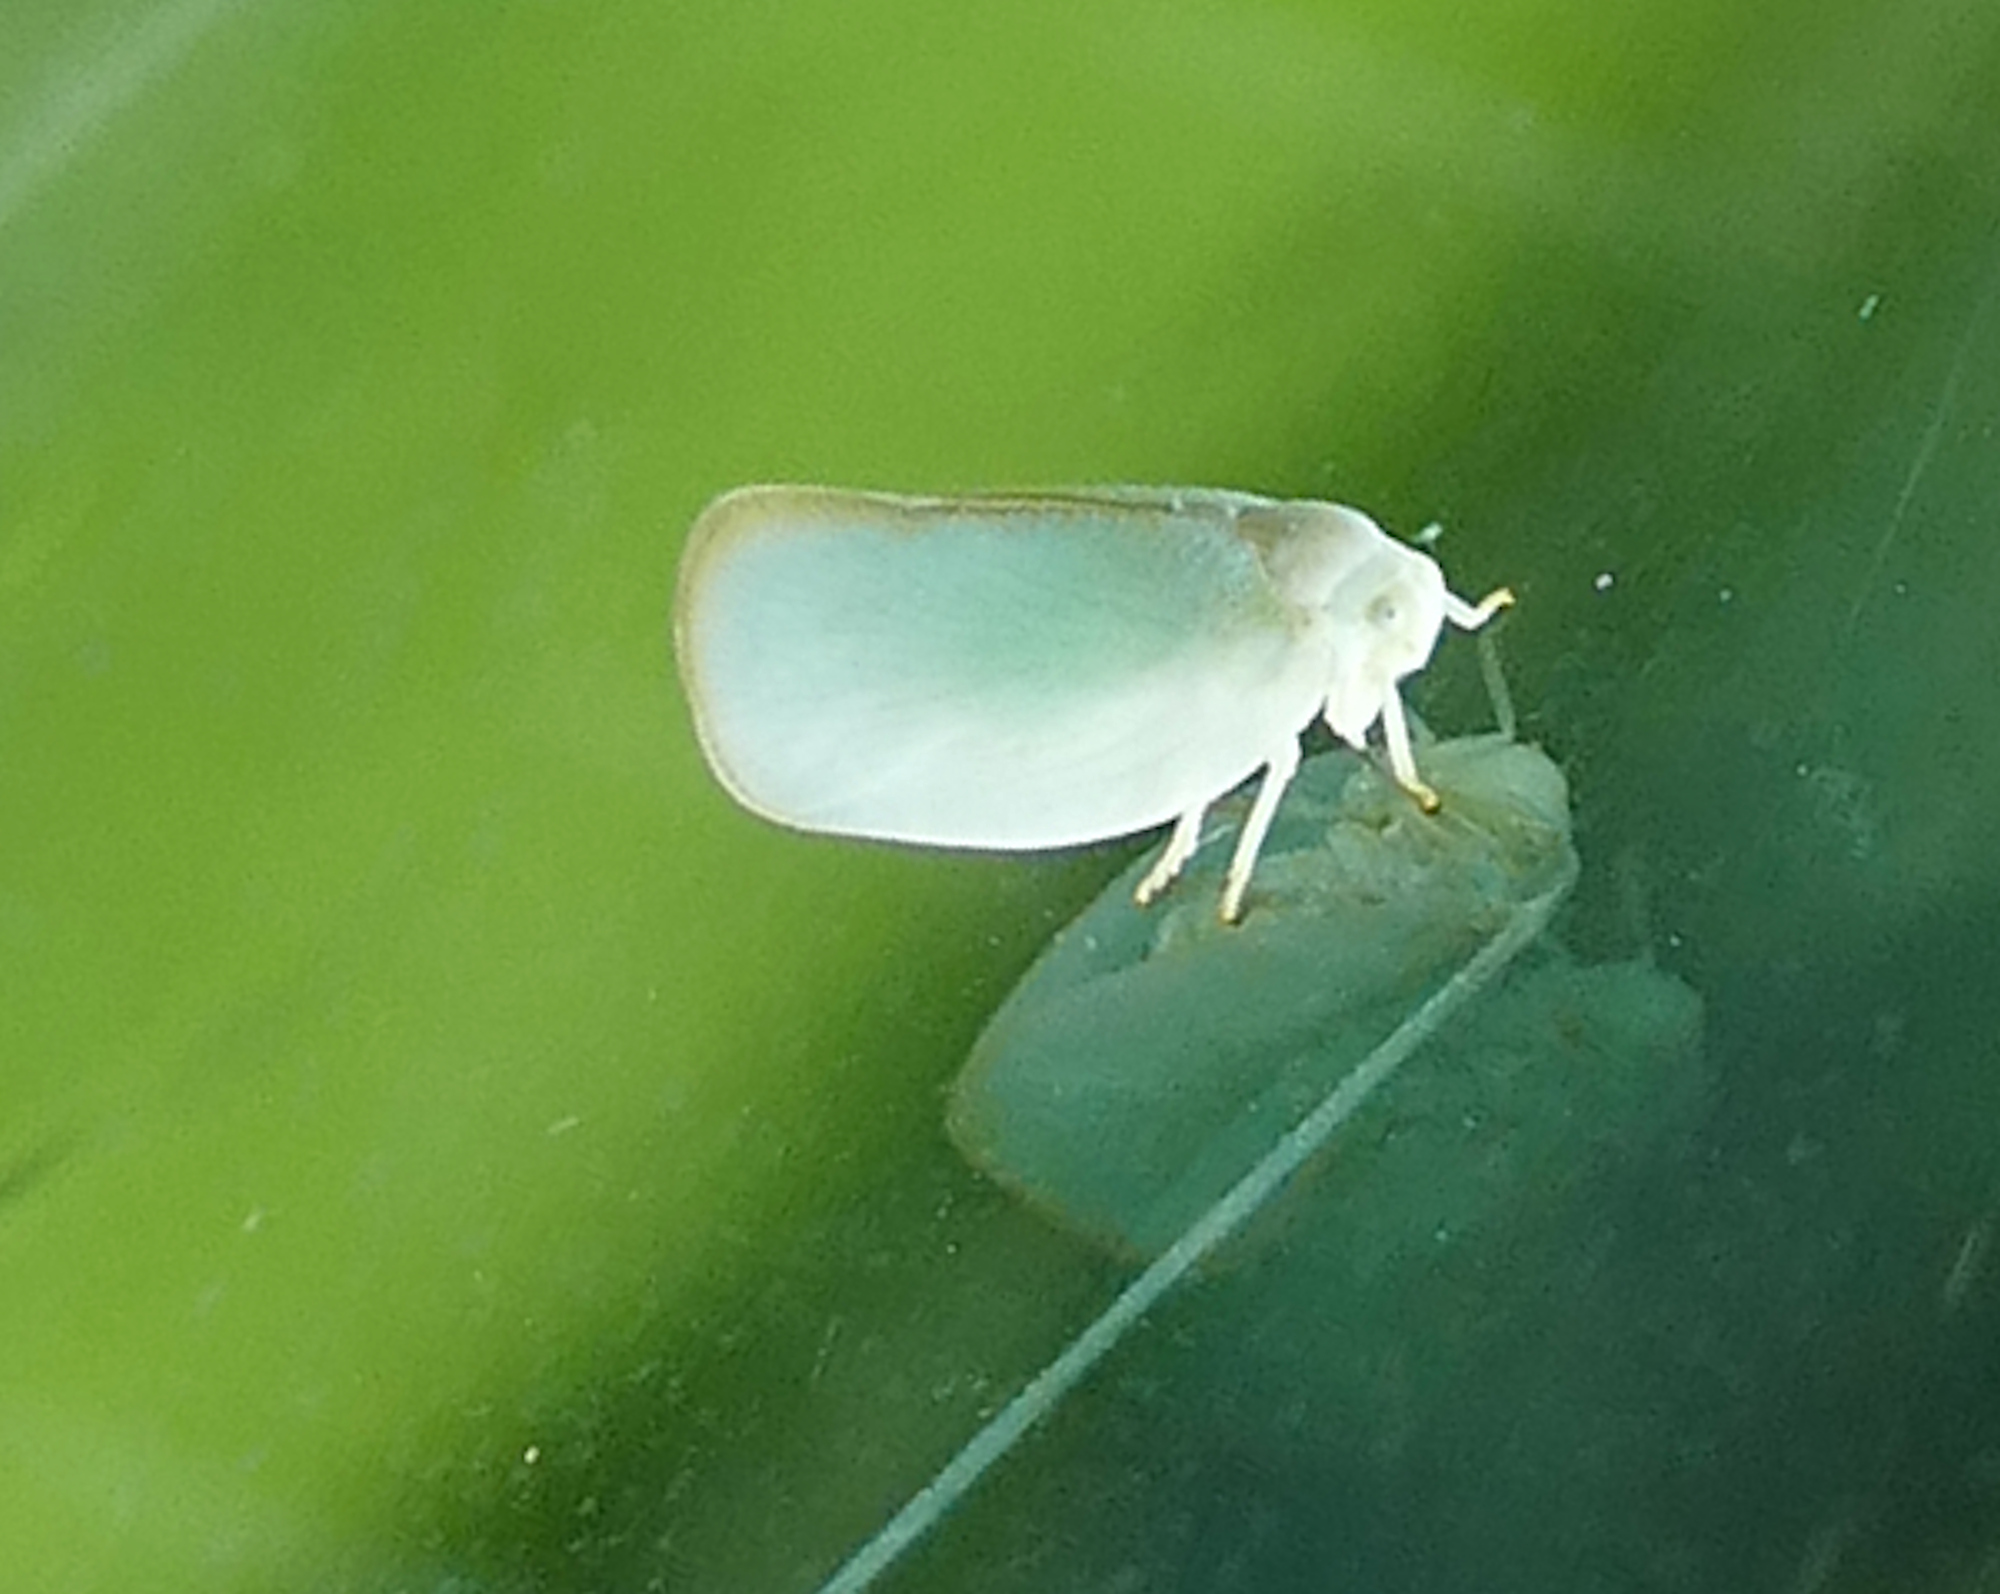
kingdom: Animalia
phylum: Arthropoda
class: Insecta
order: Hemiptera
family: Flatidae
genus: Ormenoides
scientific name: Ormenoides venusta
